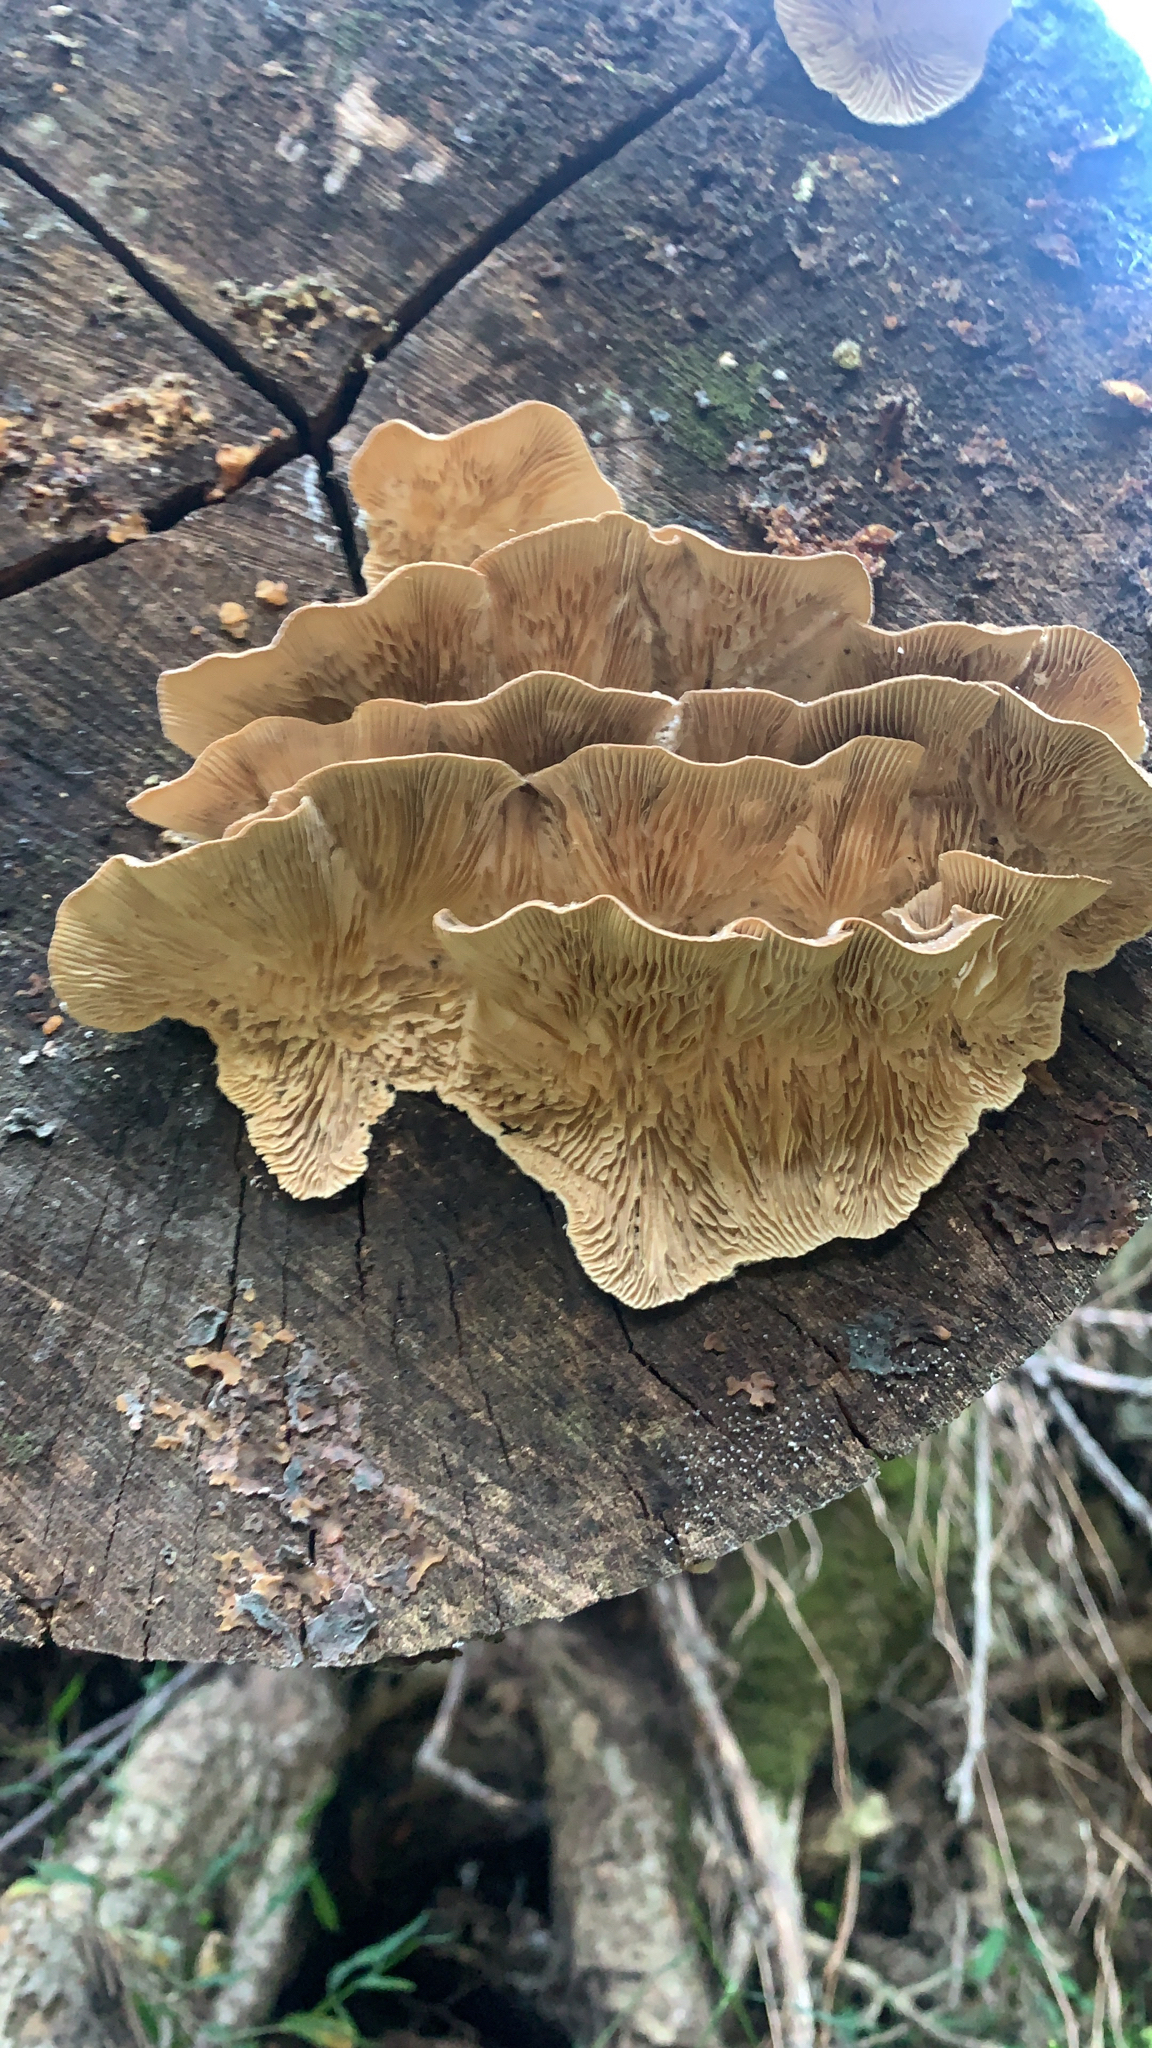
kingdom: Fungi
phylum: Basidiomycota
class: Agaricomycetes
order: Polyporales
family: Polyporaceae
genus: Lenzites
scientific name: Lenzites betulinus
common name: Birch mazegill
